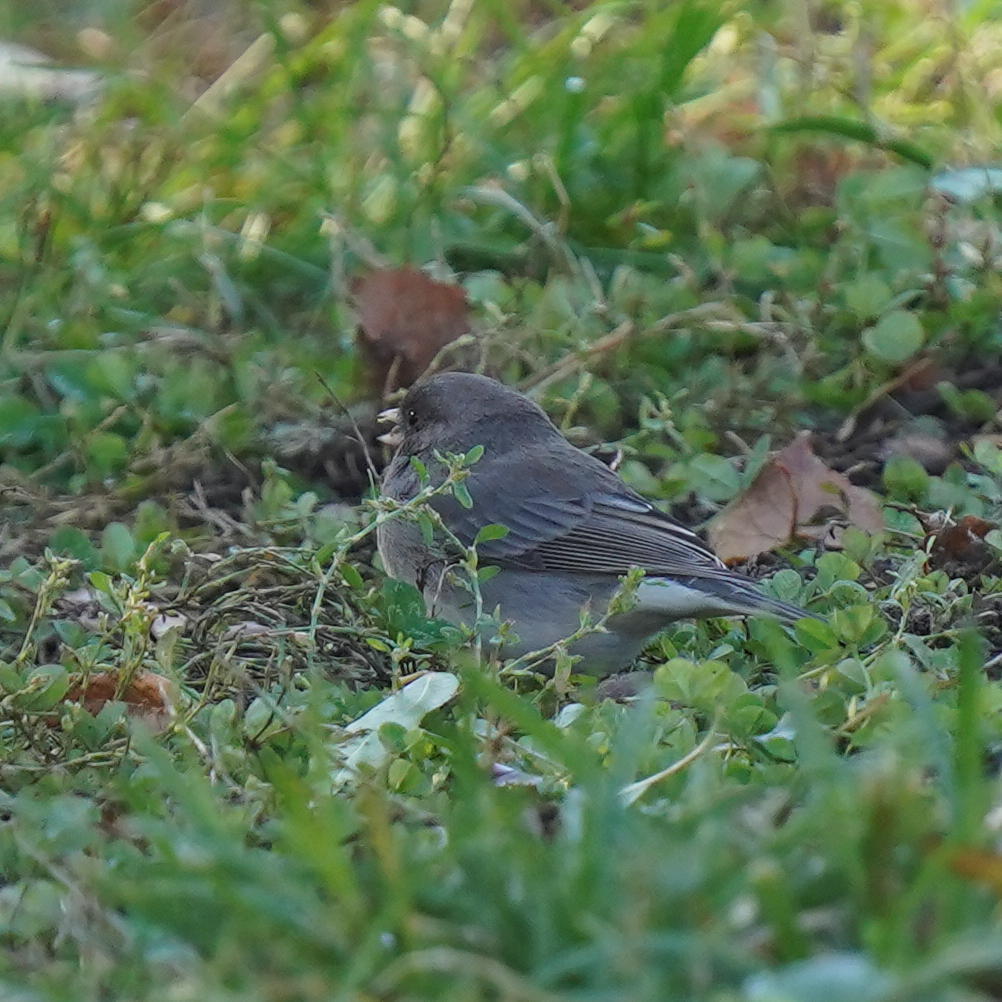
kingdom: Animalia
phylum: Chordata
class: Aves
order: Passeriformes
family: Passerellidae
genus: Junco
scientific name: Junco hyemalis
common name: Dark-eyed junco
